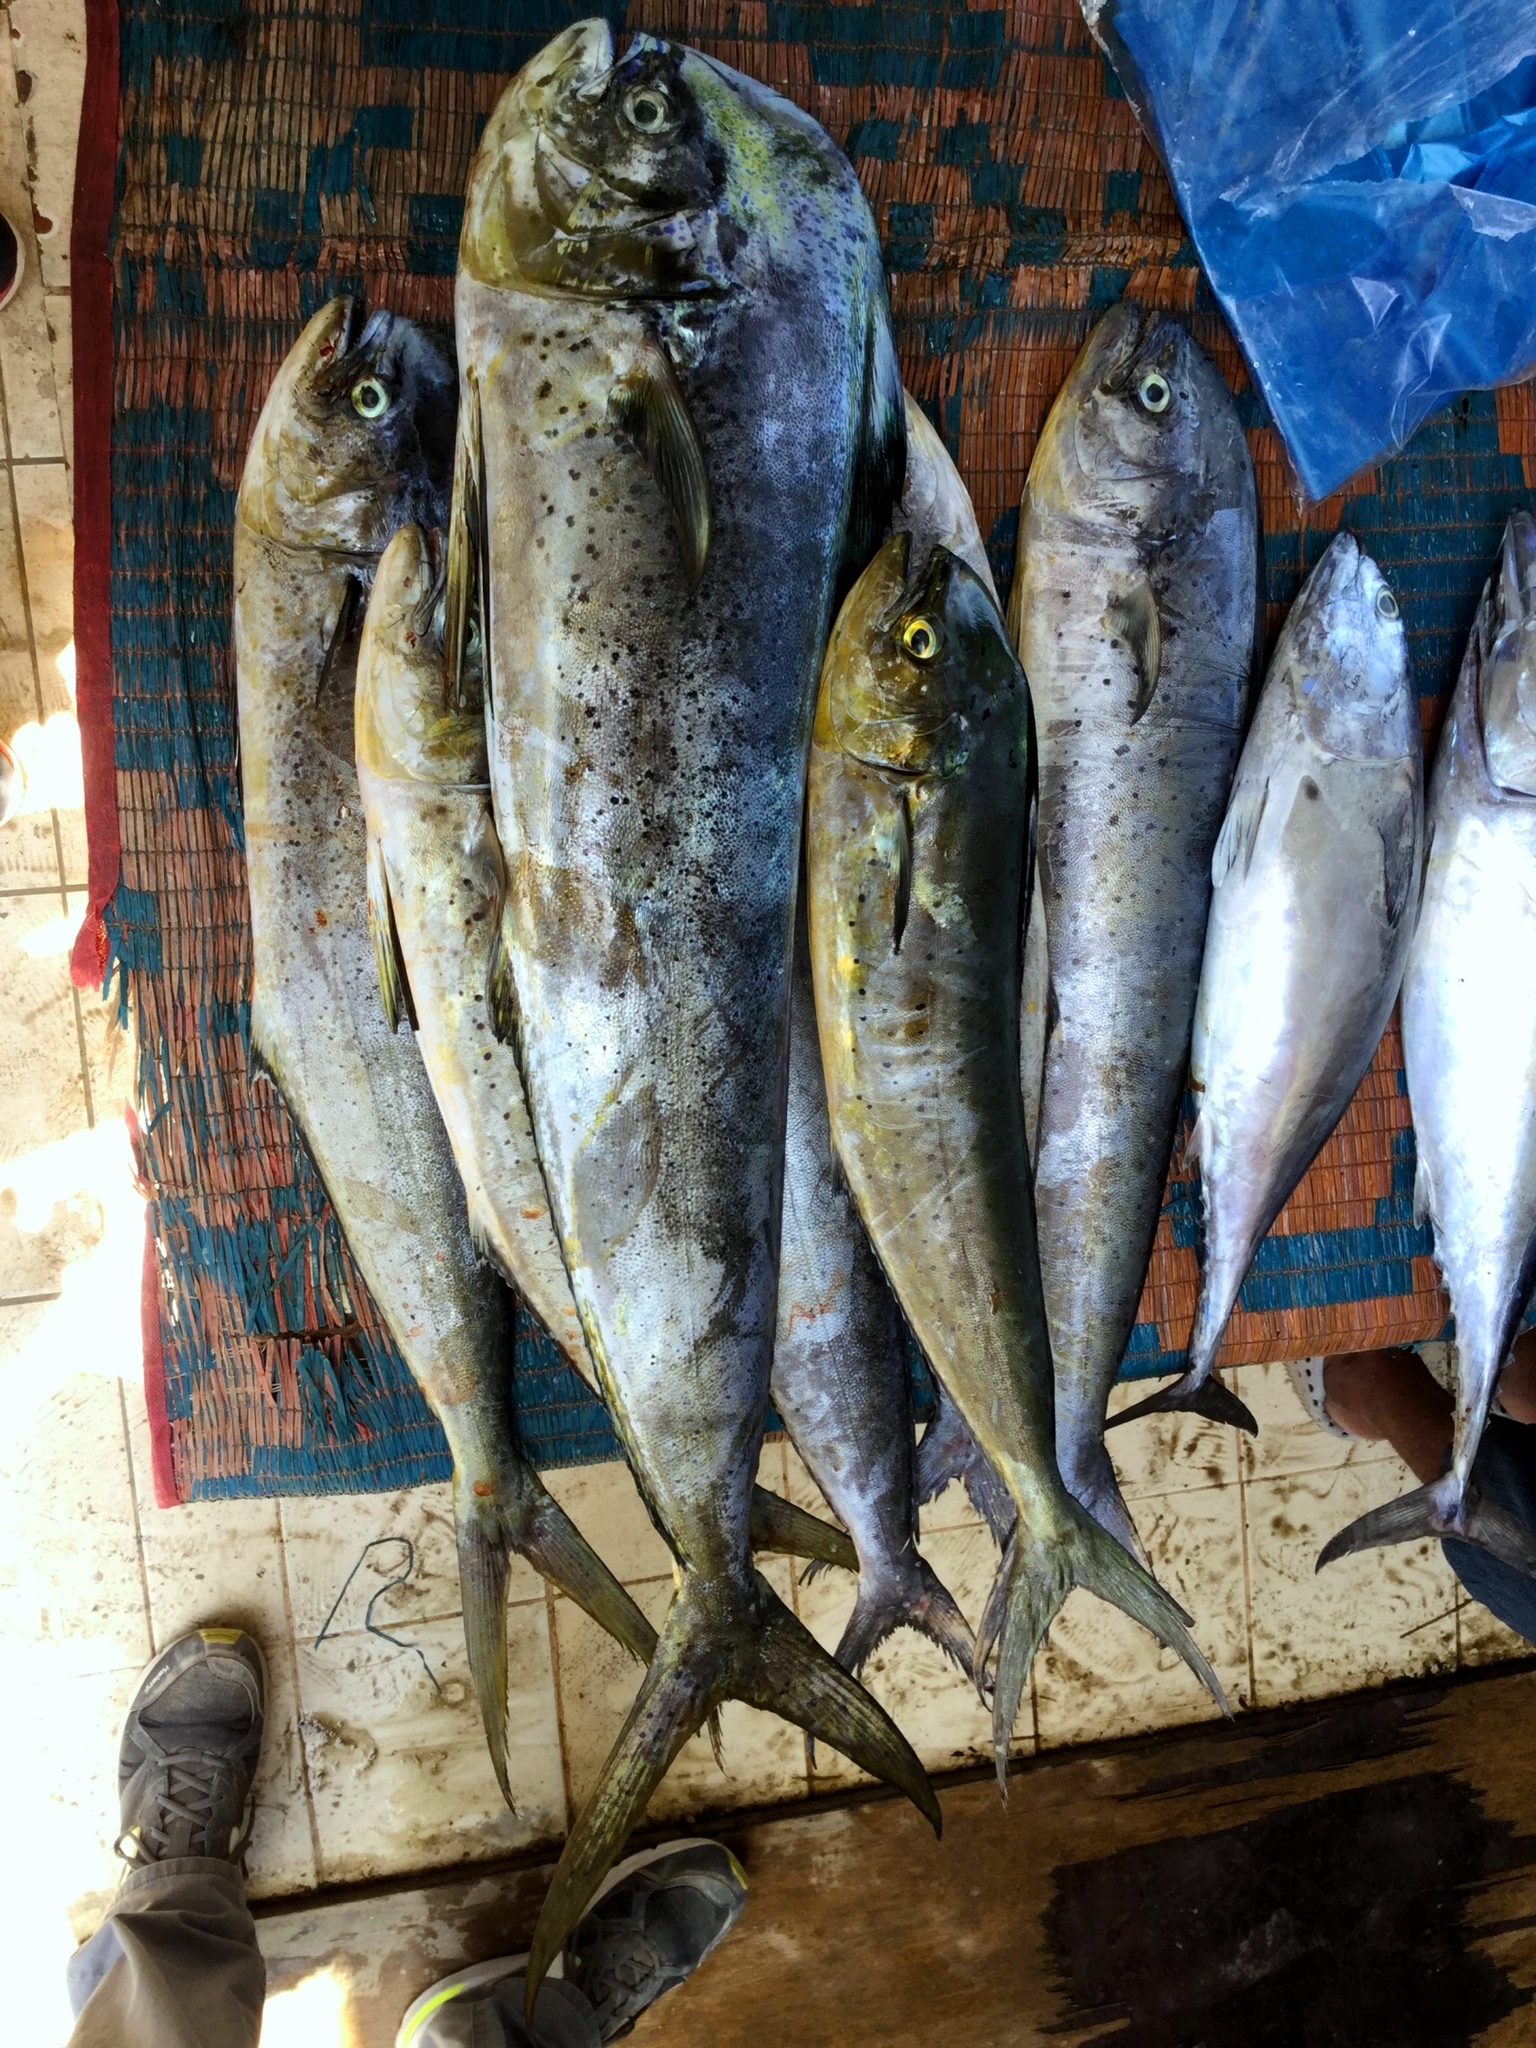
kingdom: Animalia
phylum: Chordata
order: Perciformes
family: Coryphaenidae
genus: Coryphaena
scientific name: Coryphaena hippurus
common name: Dolphin
